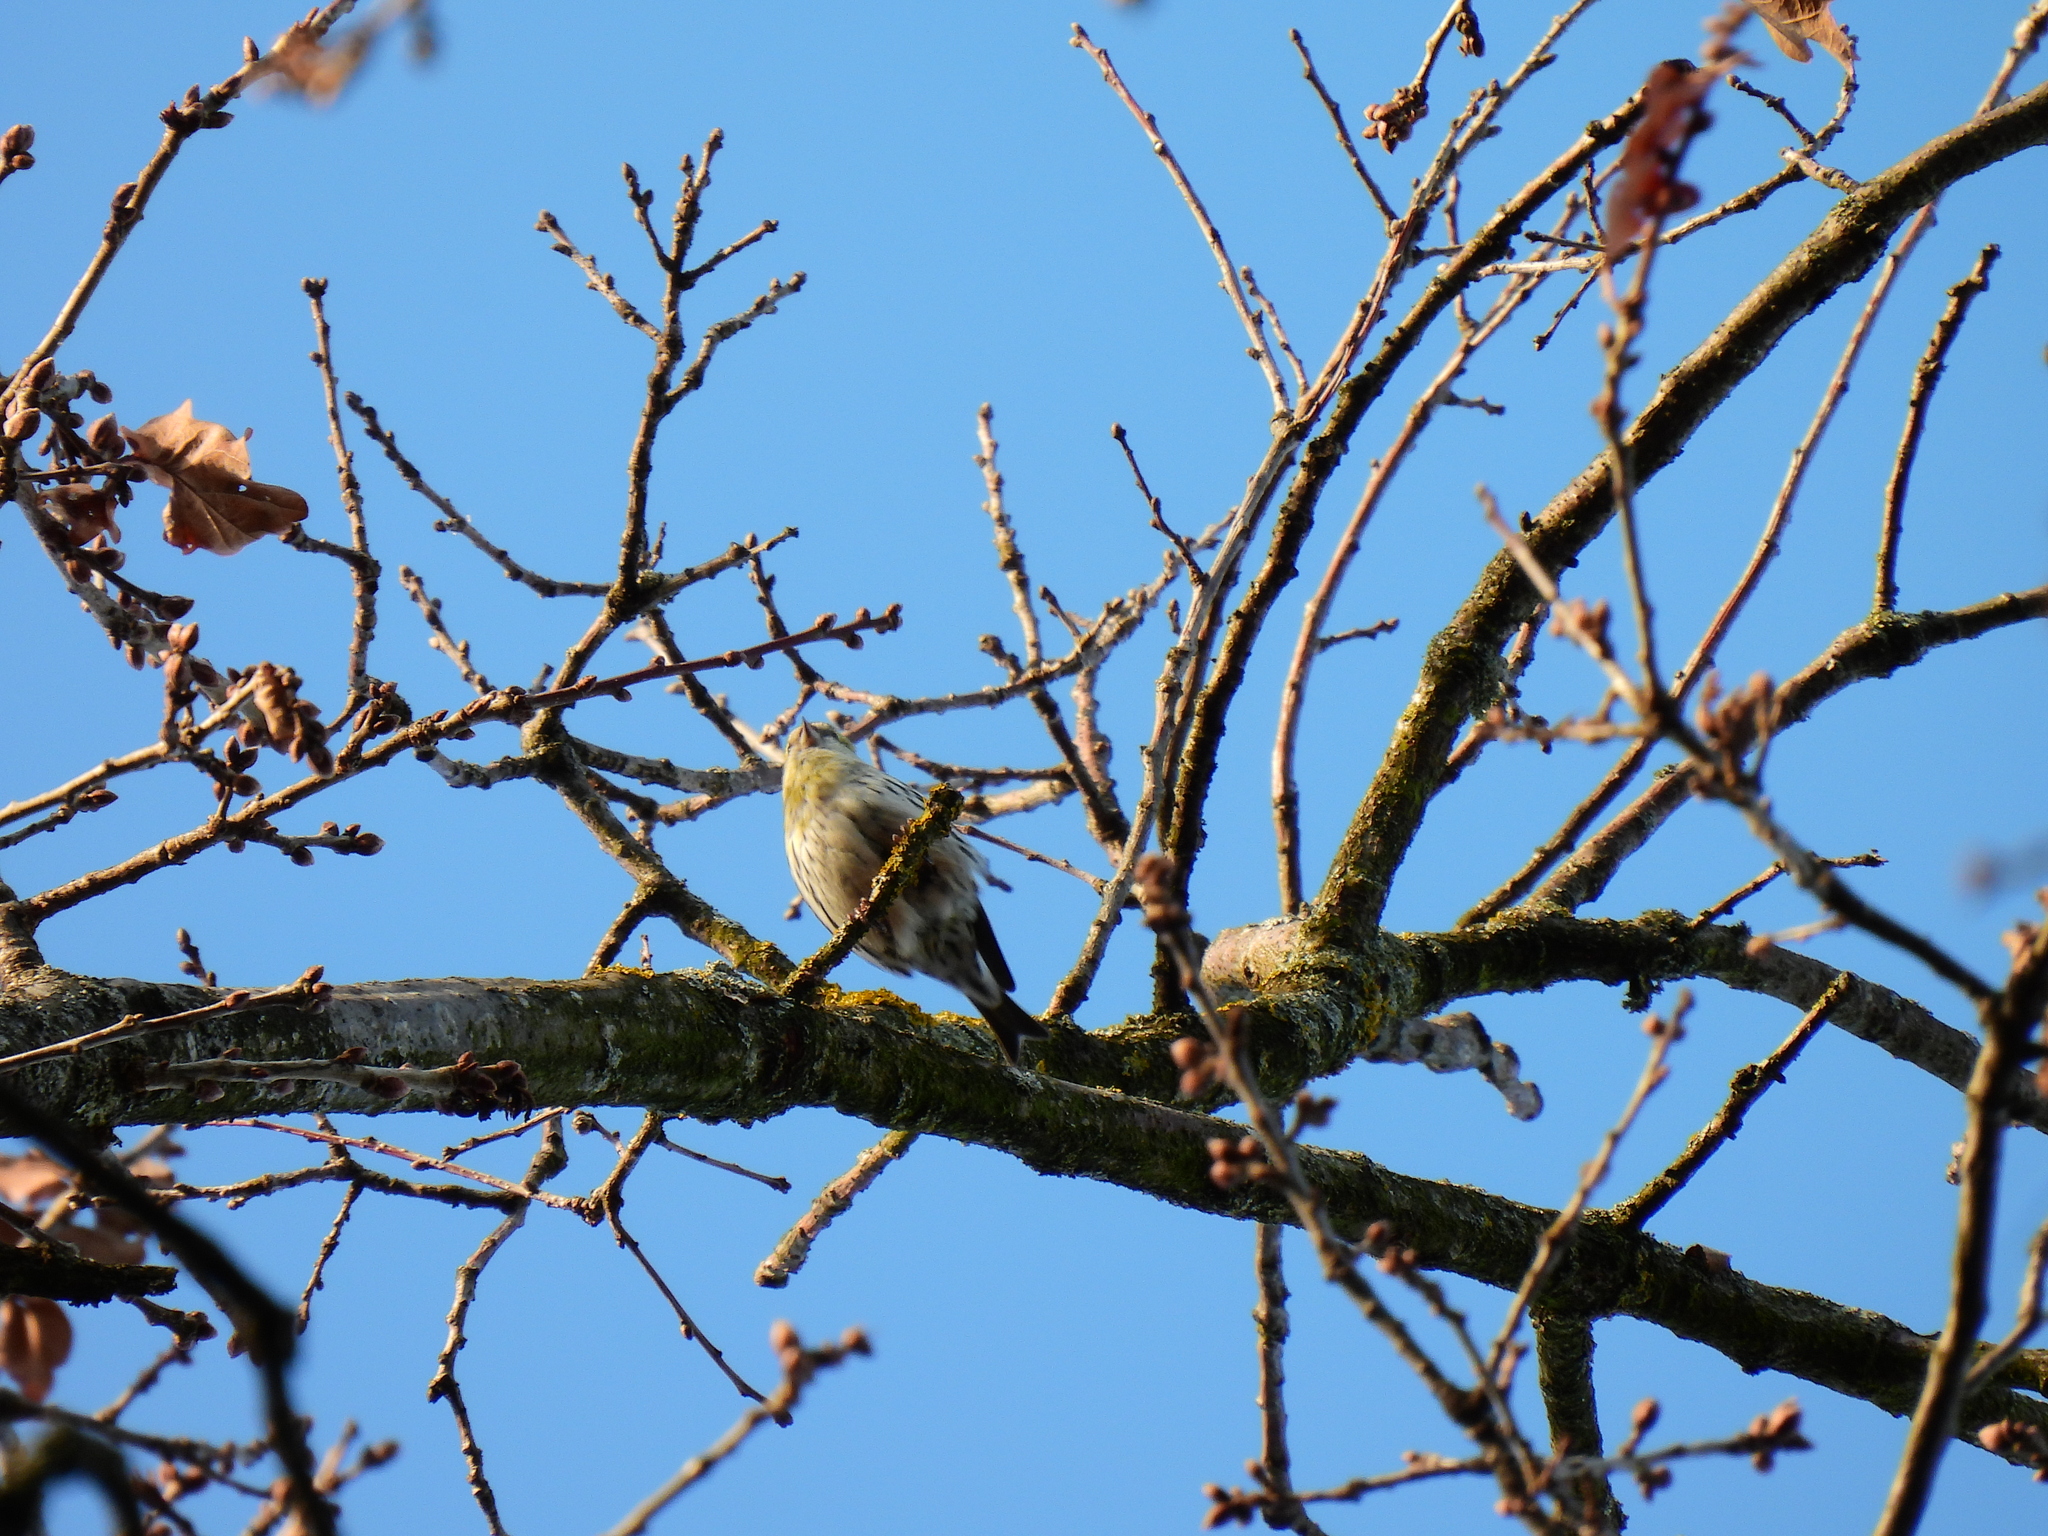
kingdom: Animalia
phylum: Chordata
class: Aves
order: Passeriformes
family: Fringillidae
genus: Serinus
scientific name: Serinus serinus
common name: European serin
